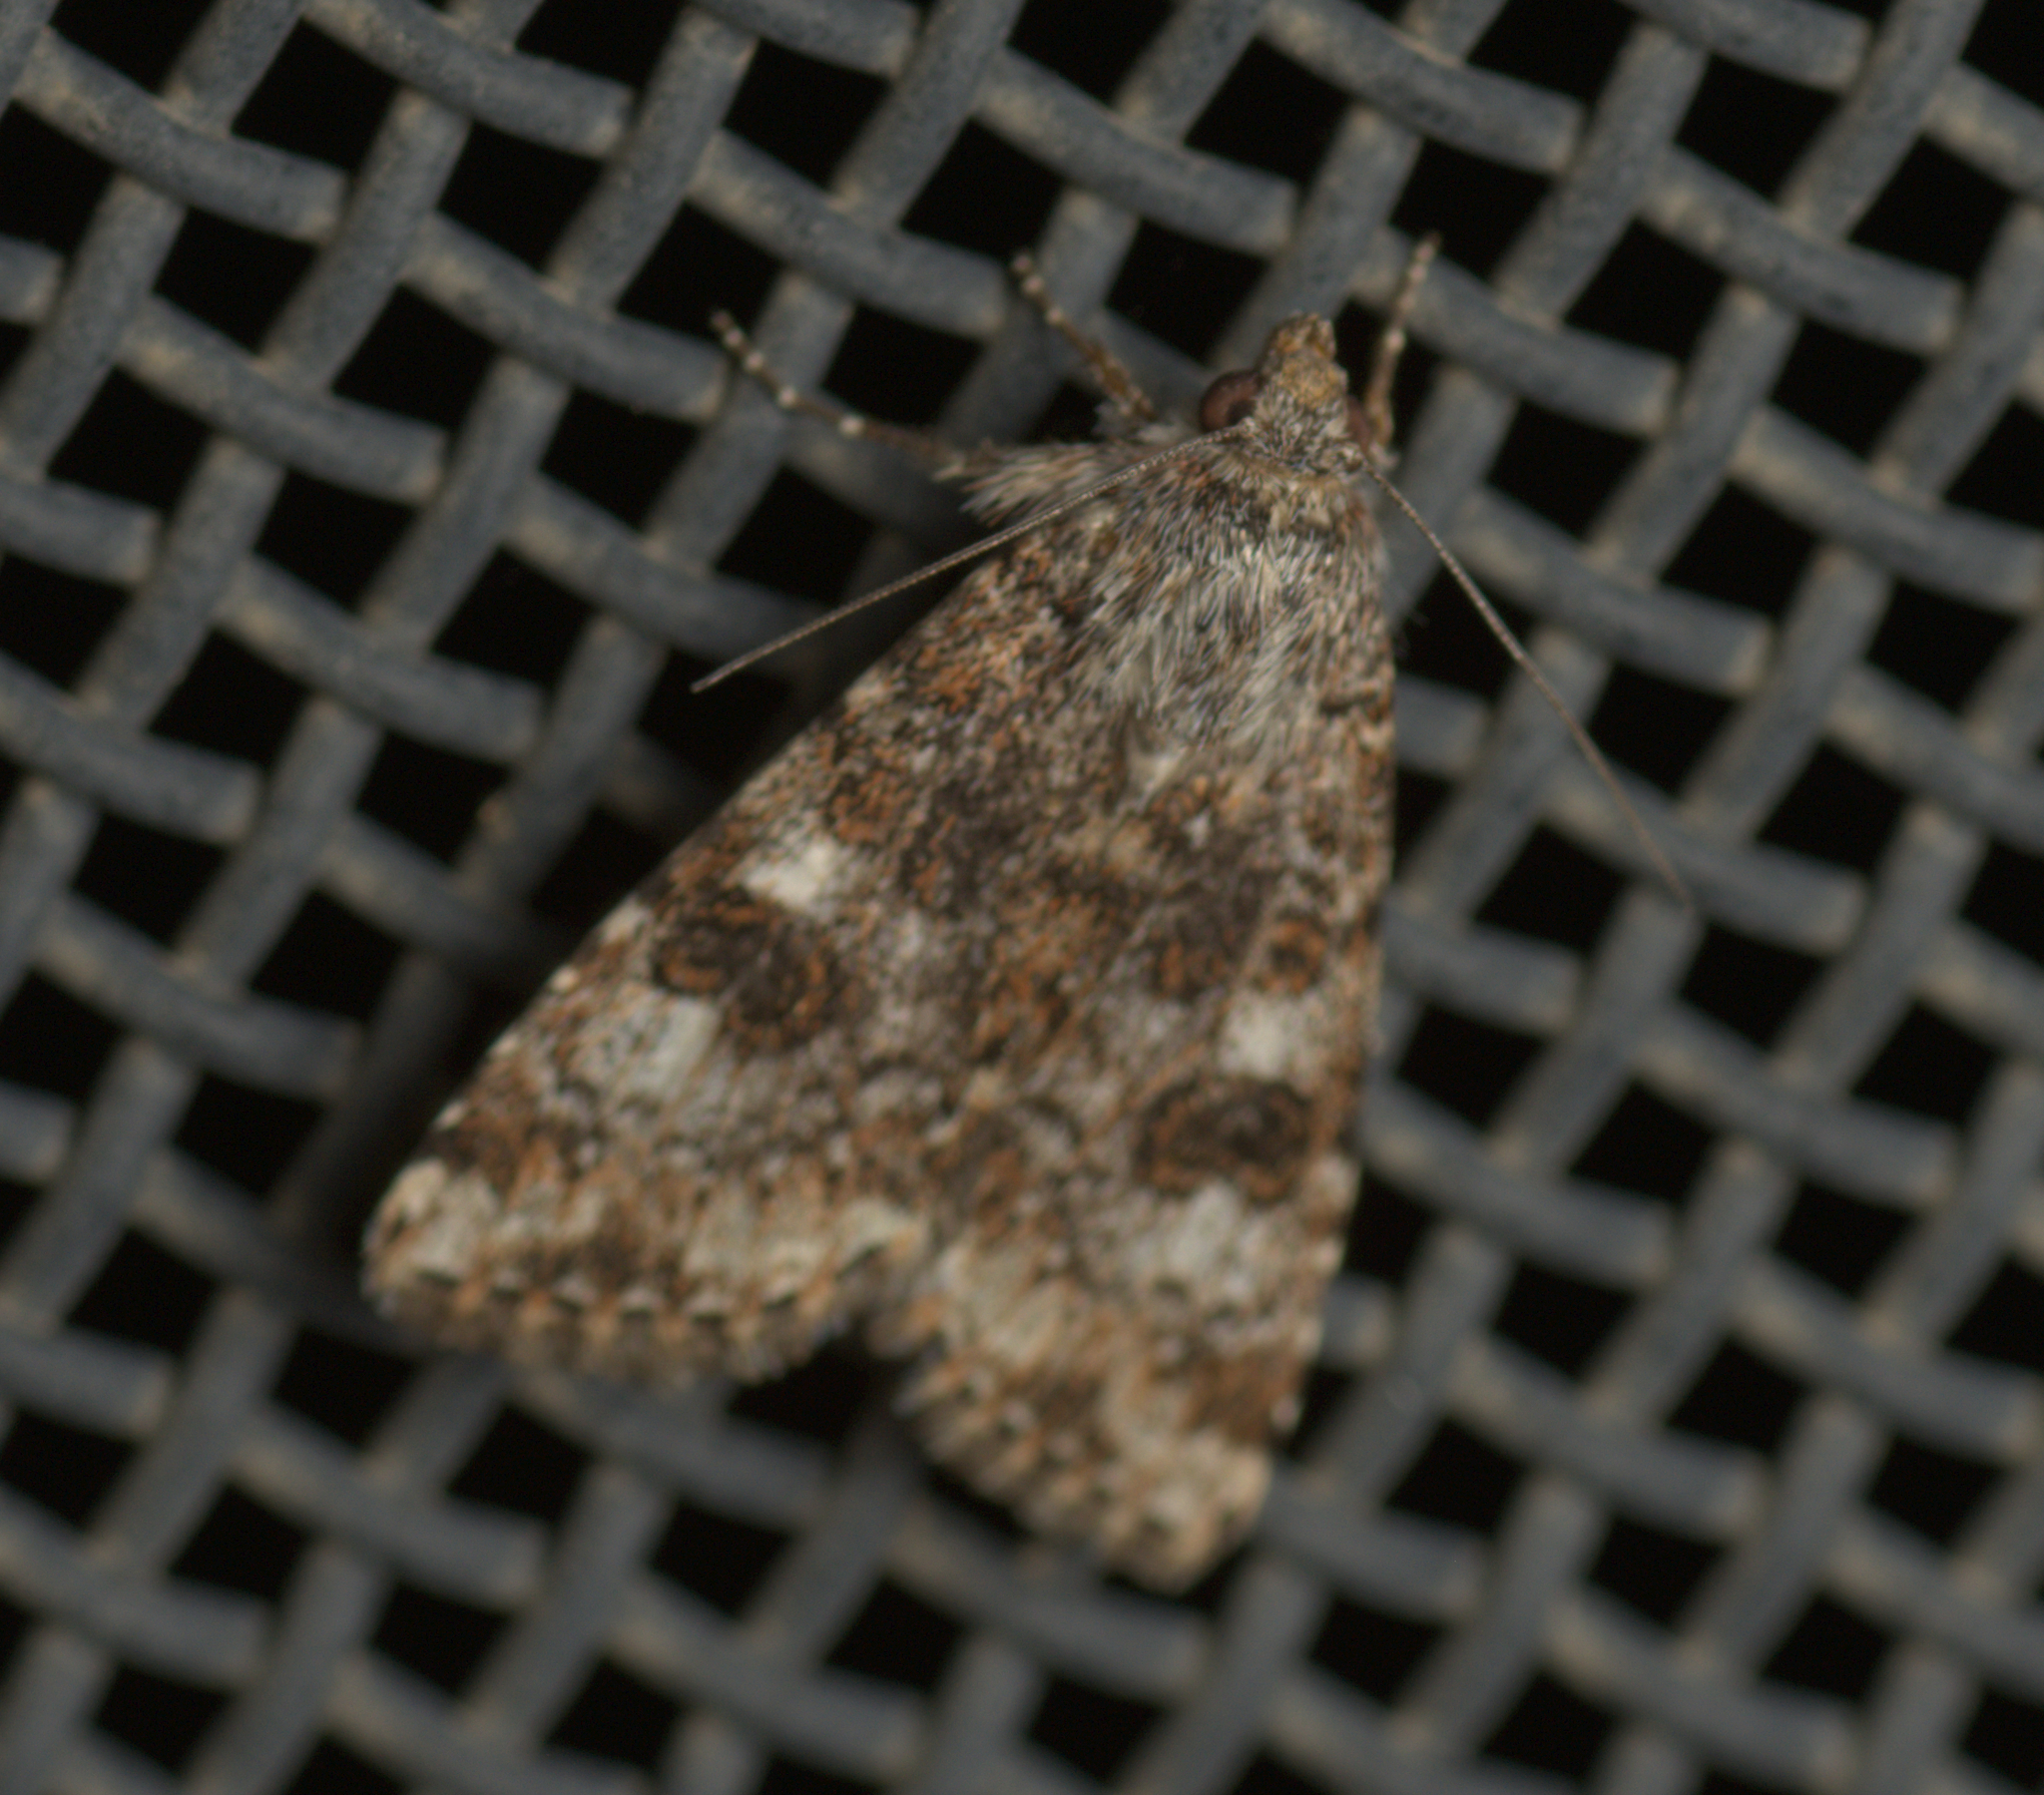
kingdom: Animalia
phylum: Arthropoda
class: Insecta
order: Lepidoptera
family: Noctuidae
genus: Heliothis
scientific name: Heliothis punctifera
